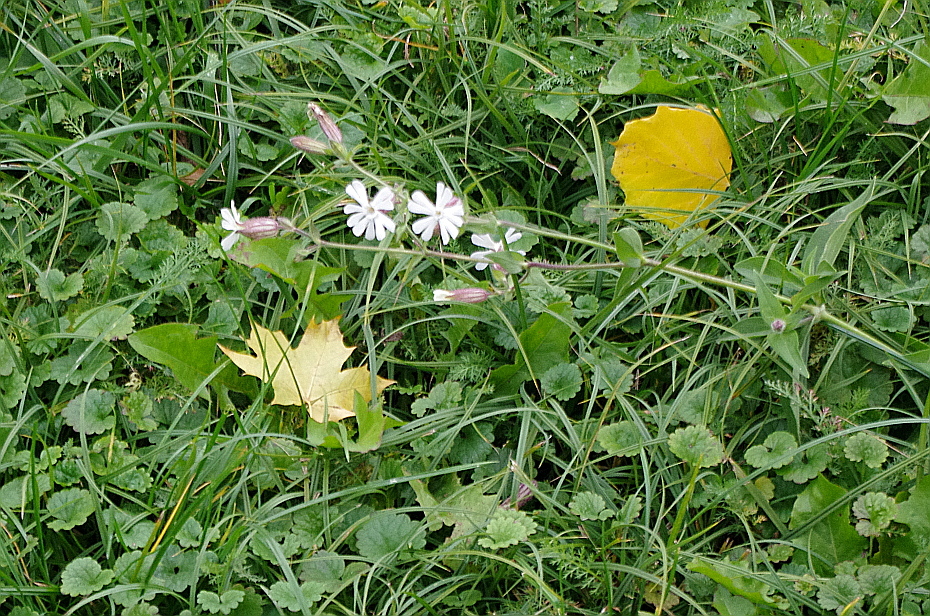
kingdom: Plantae
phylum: Tracheophyta
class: Magnoliopsida
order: Caryophyllales
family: Caryophyllaceae
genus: Silene
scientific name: Silene latifolia
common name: White campion
